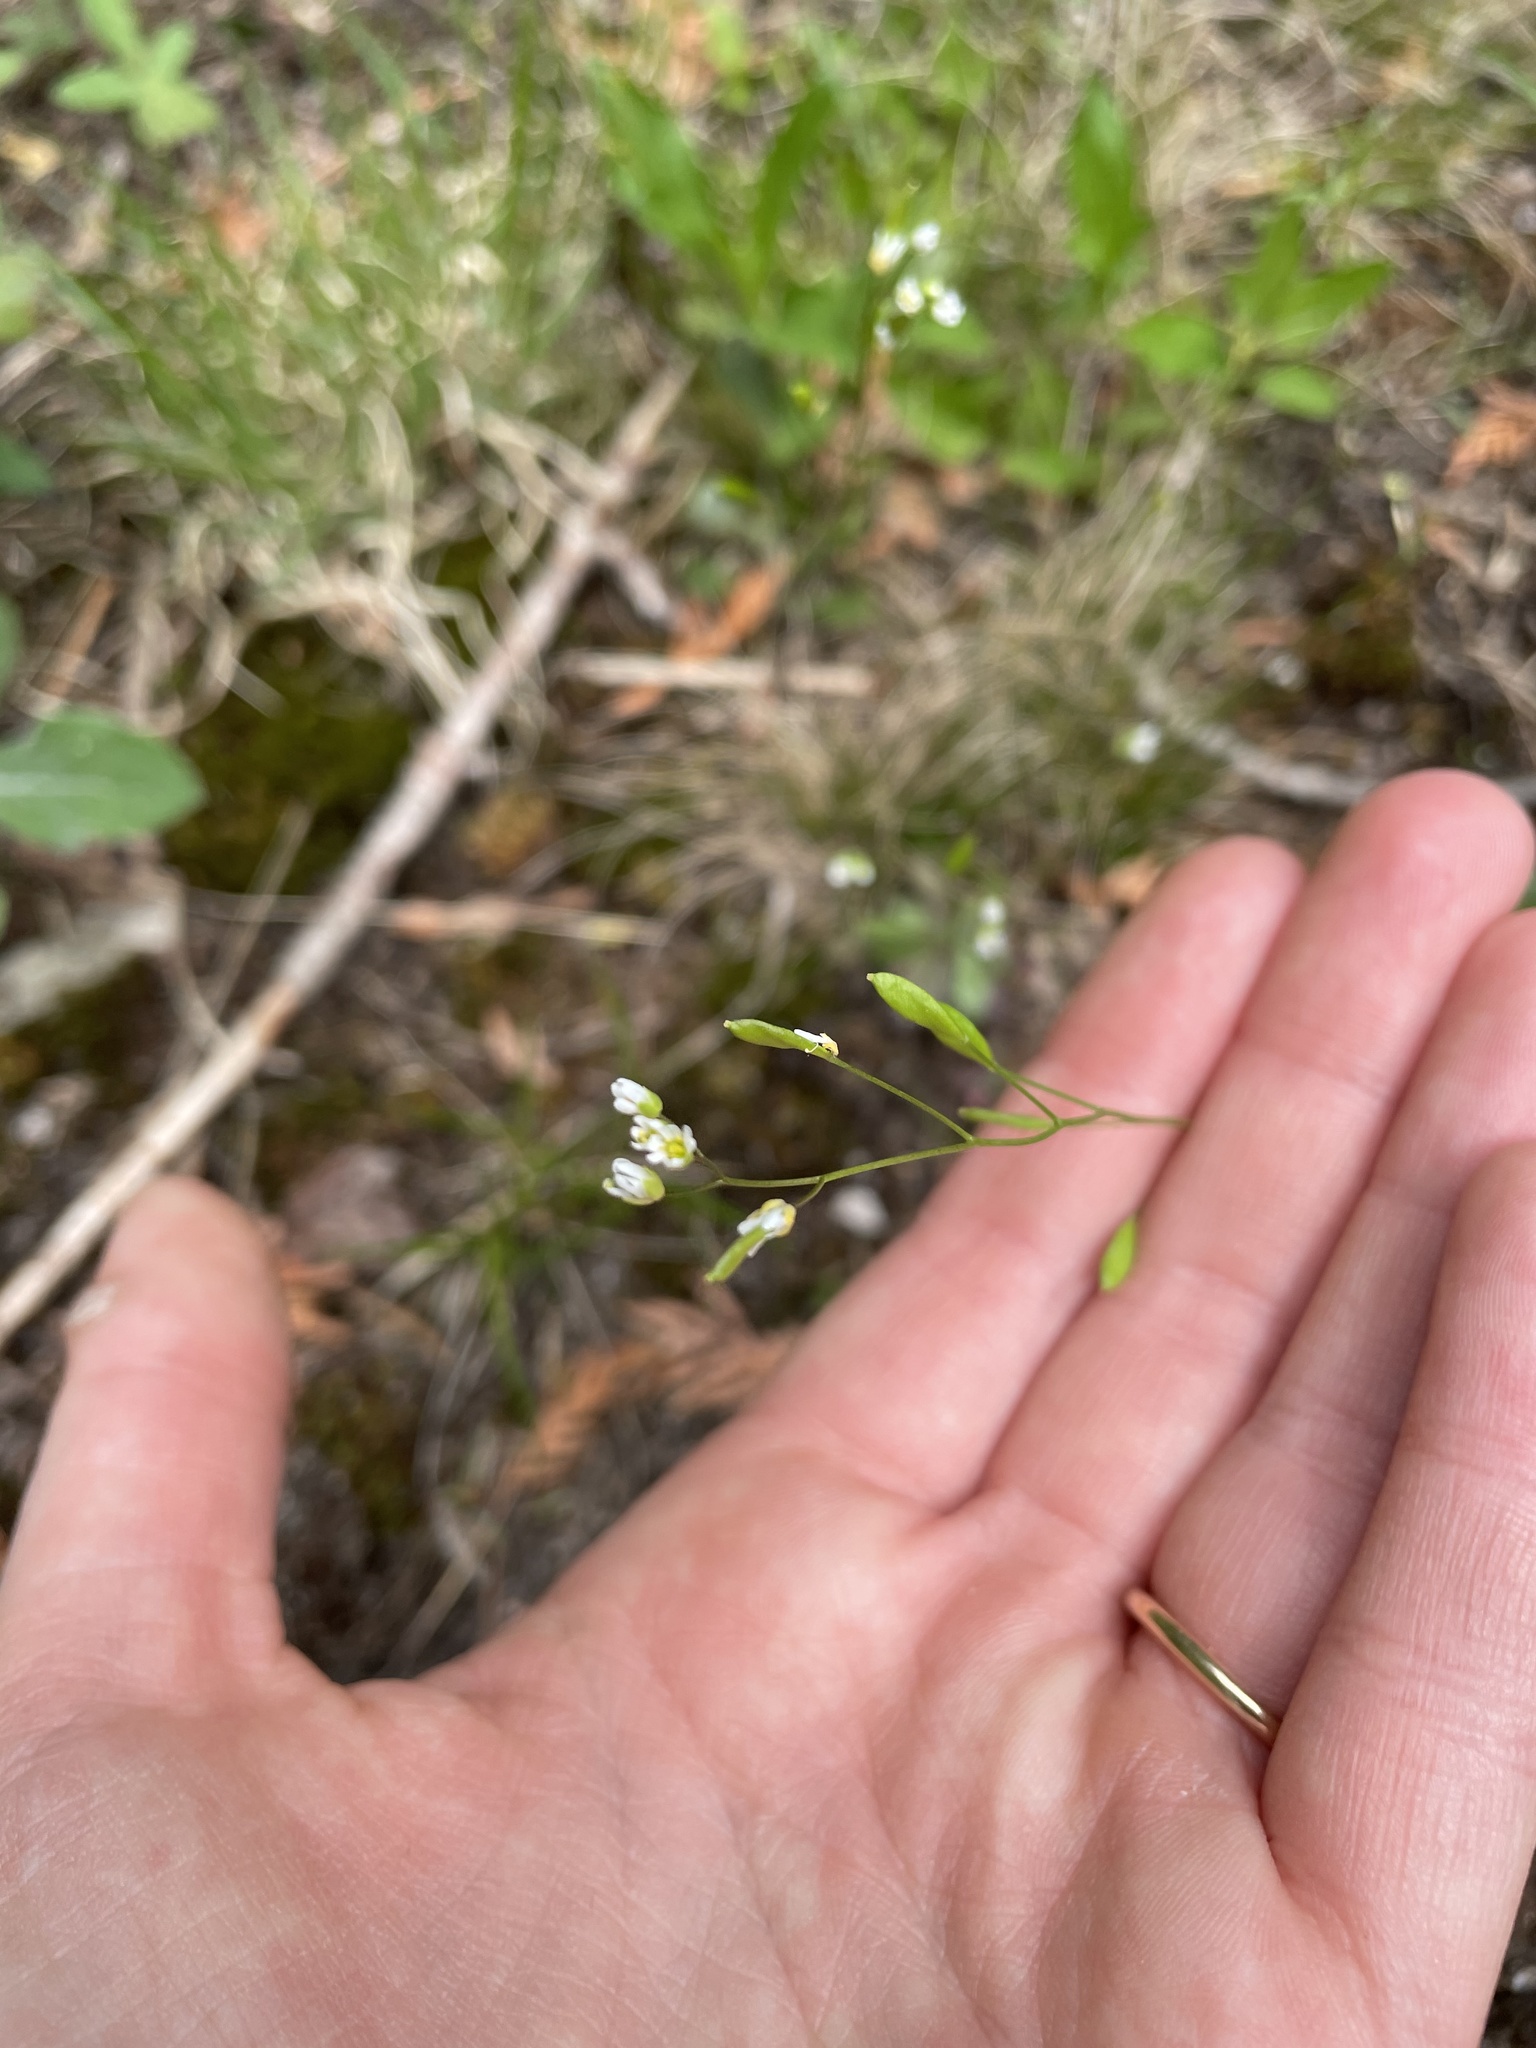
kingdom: Plantae
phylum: Tracheophyta
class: Magnoliopsida
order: Brassicales
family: Brassicaceae
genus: Draba
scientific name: Draba verna
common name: Spring draba
